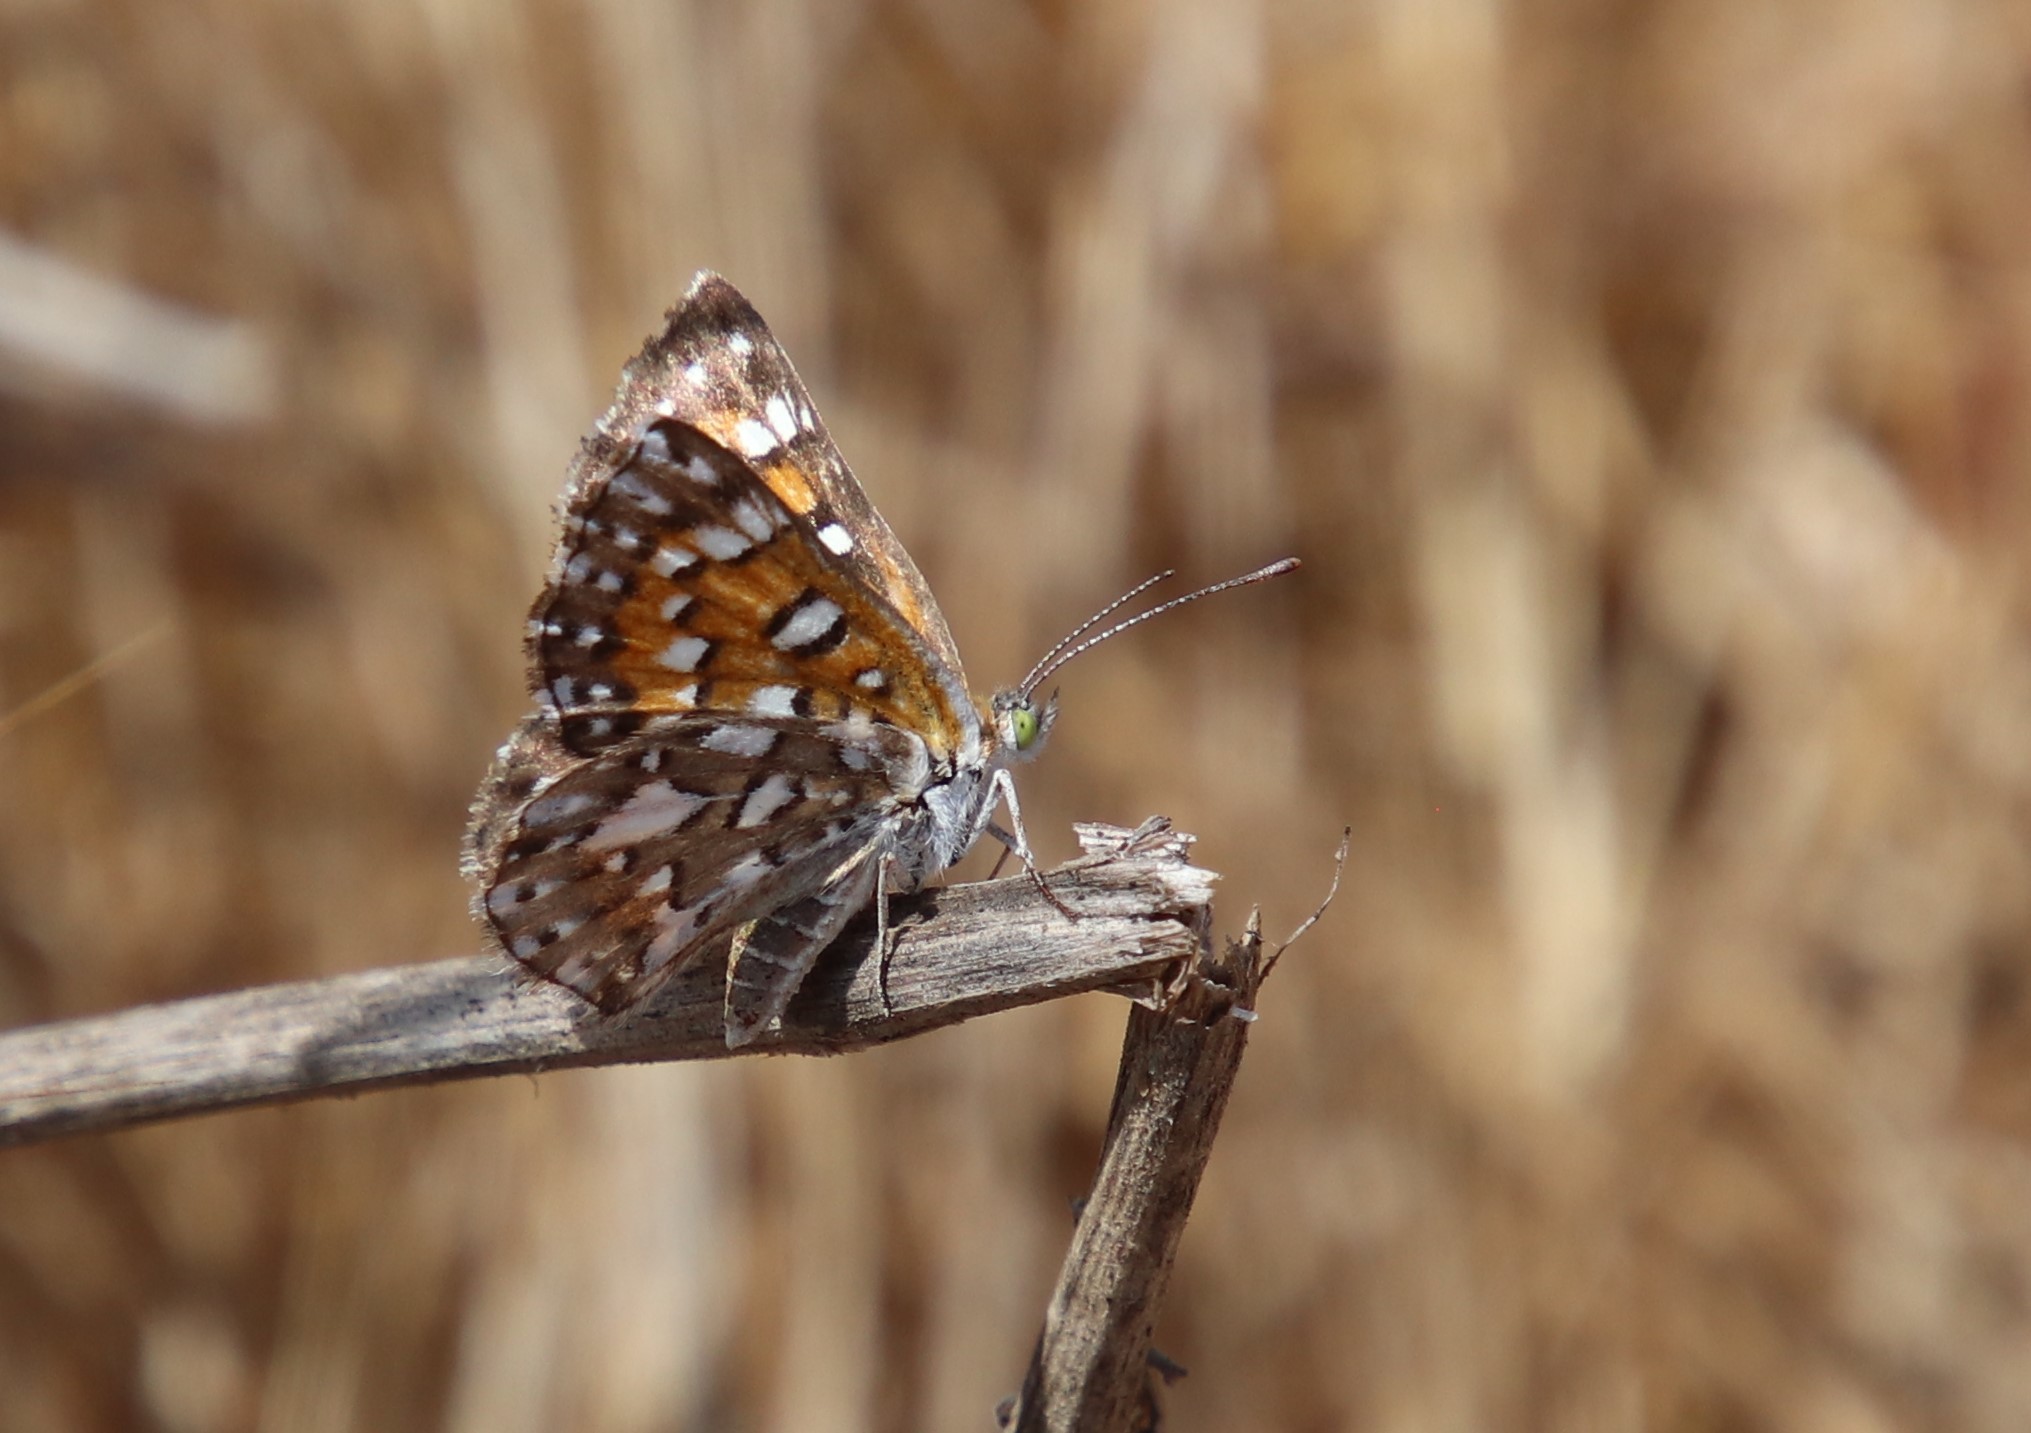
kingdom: Animalia
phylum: Arthropoda
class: Insecta
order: Lepidoptera
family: Riodinidae
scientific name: Riodinidae
